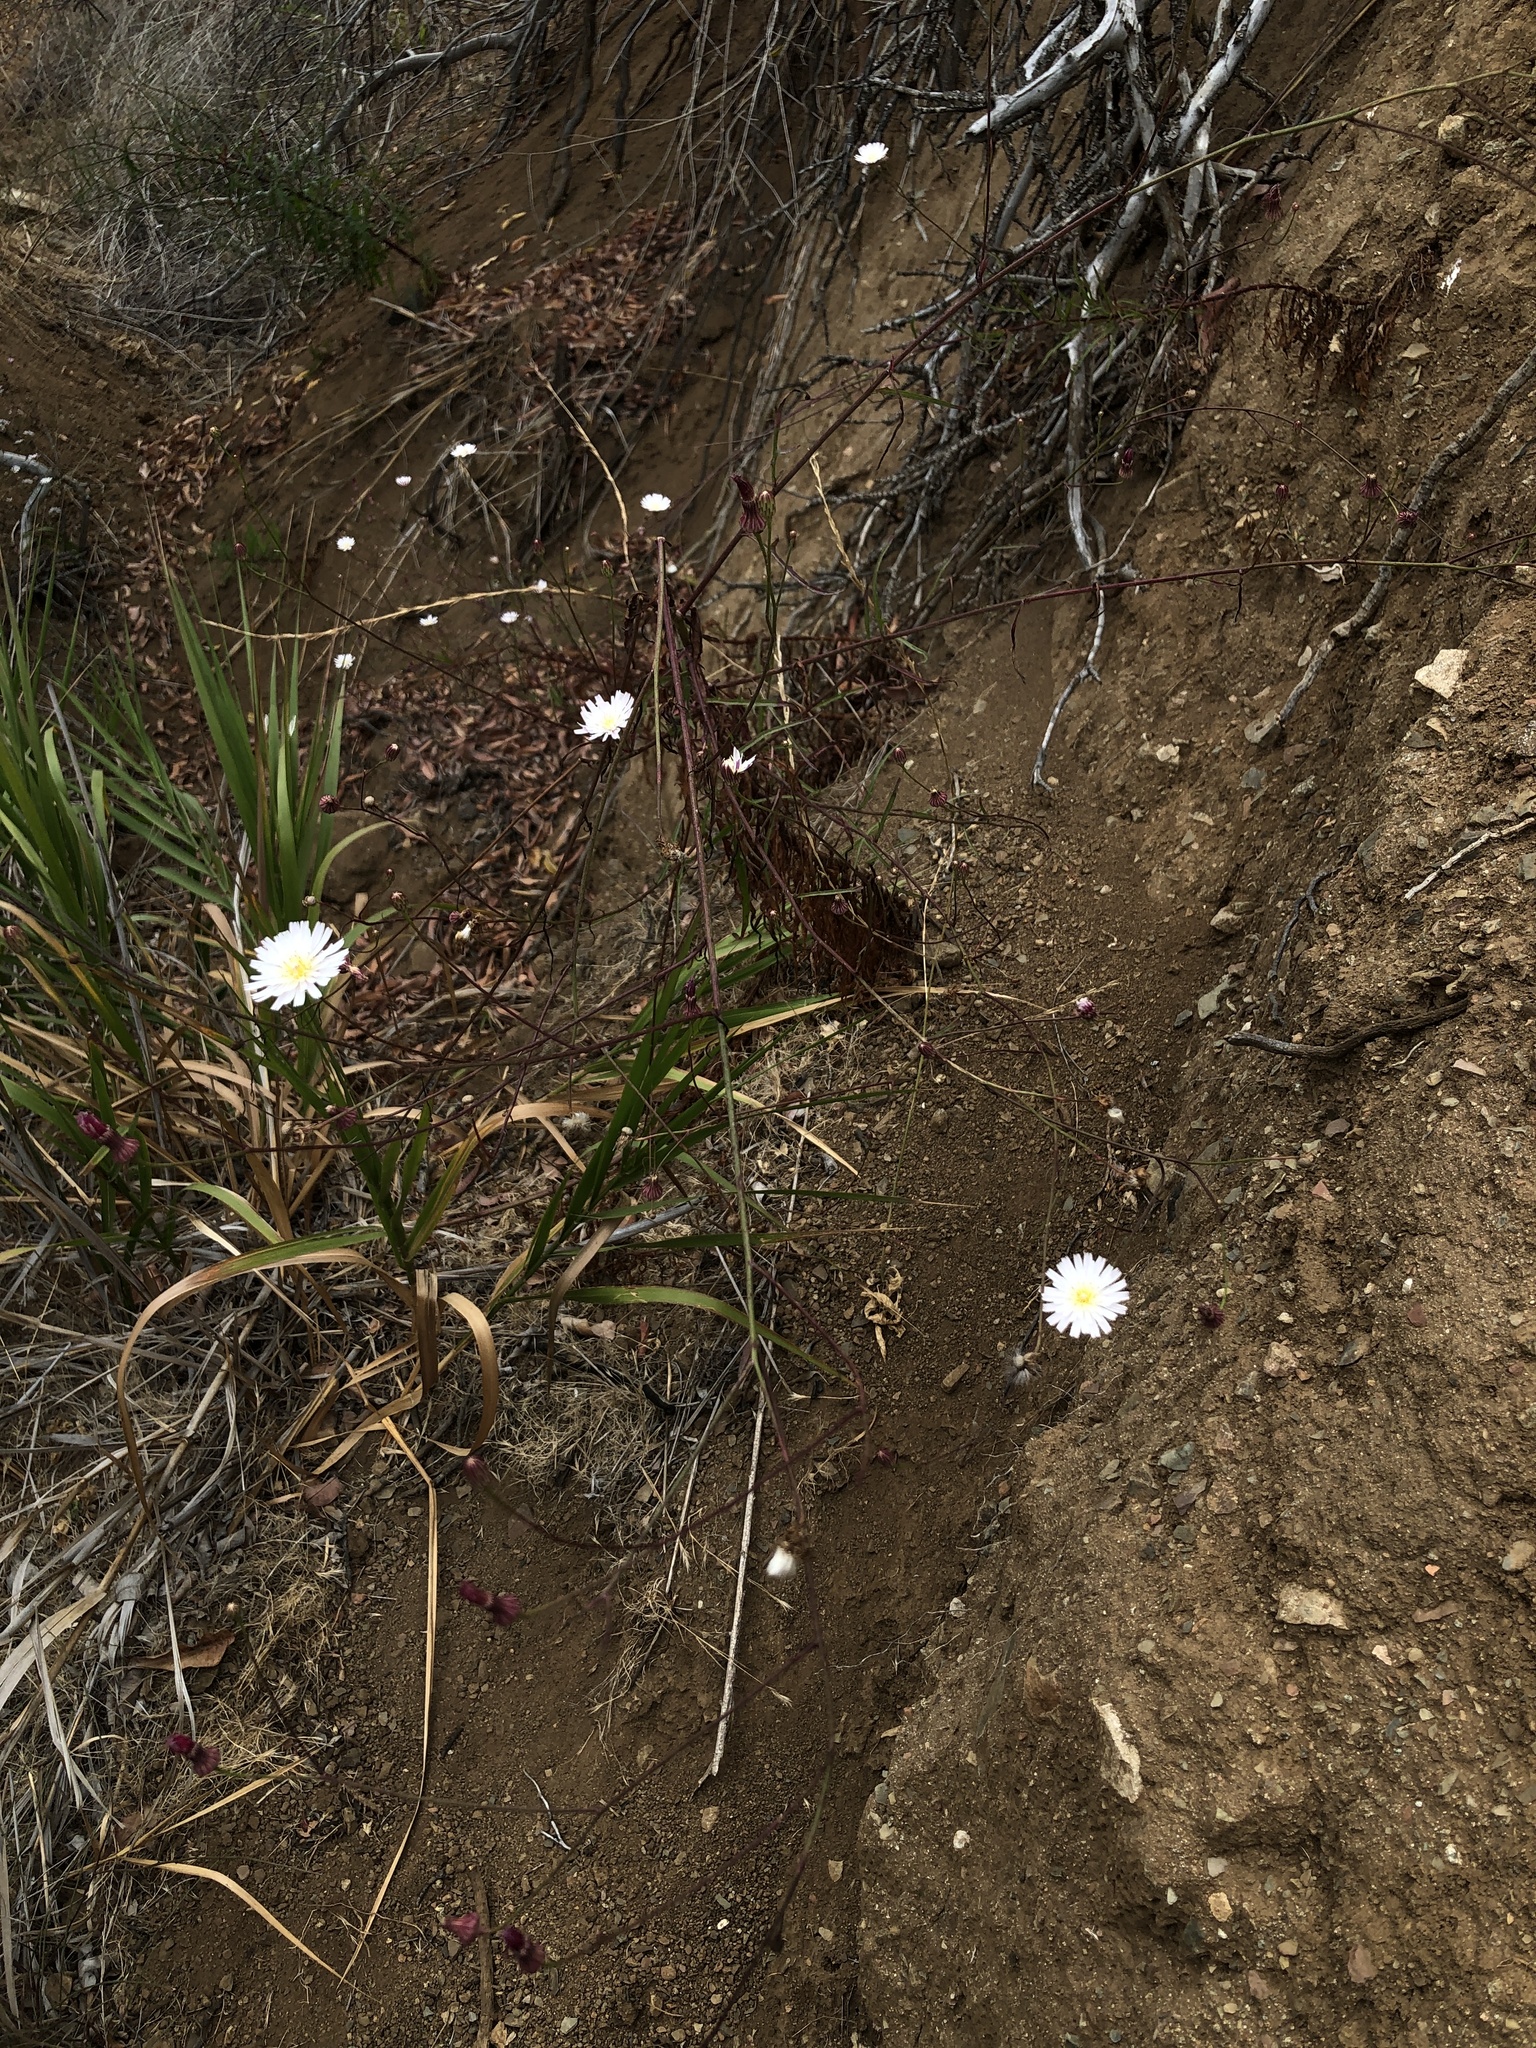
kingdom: Plantae
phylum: Tracheophyta
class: Magnoliopsida
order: Asterales
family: Asteraceae
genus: Malacothrix
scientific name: Malacothrix saxatilis
